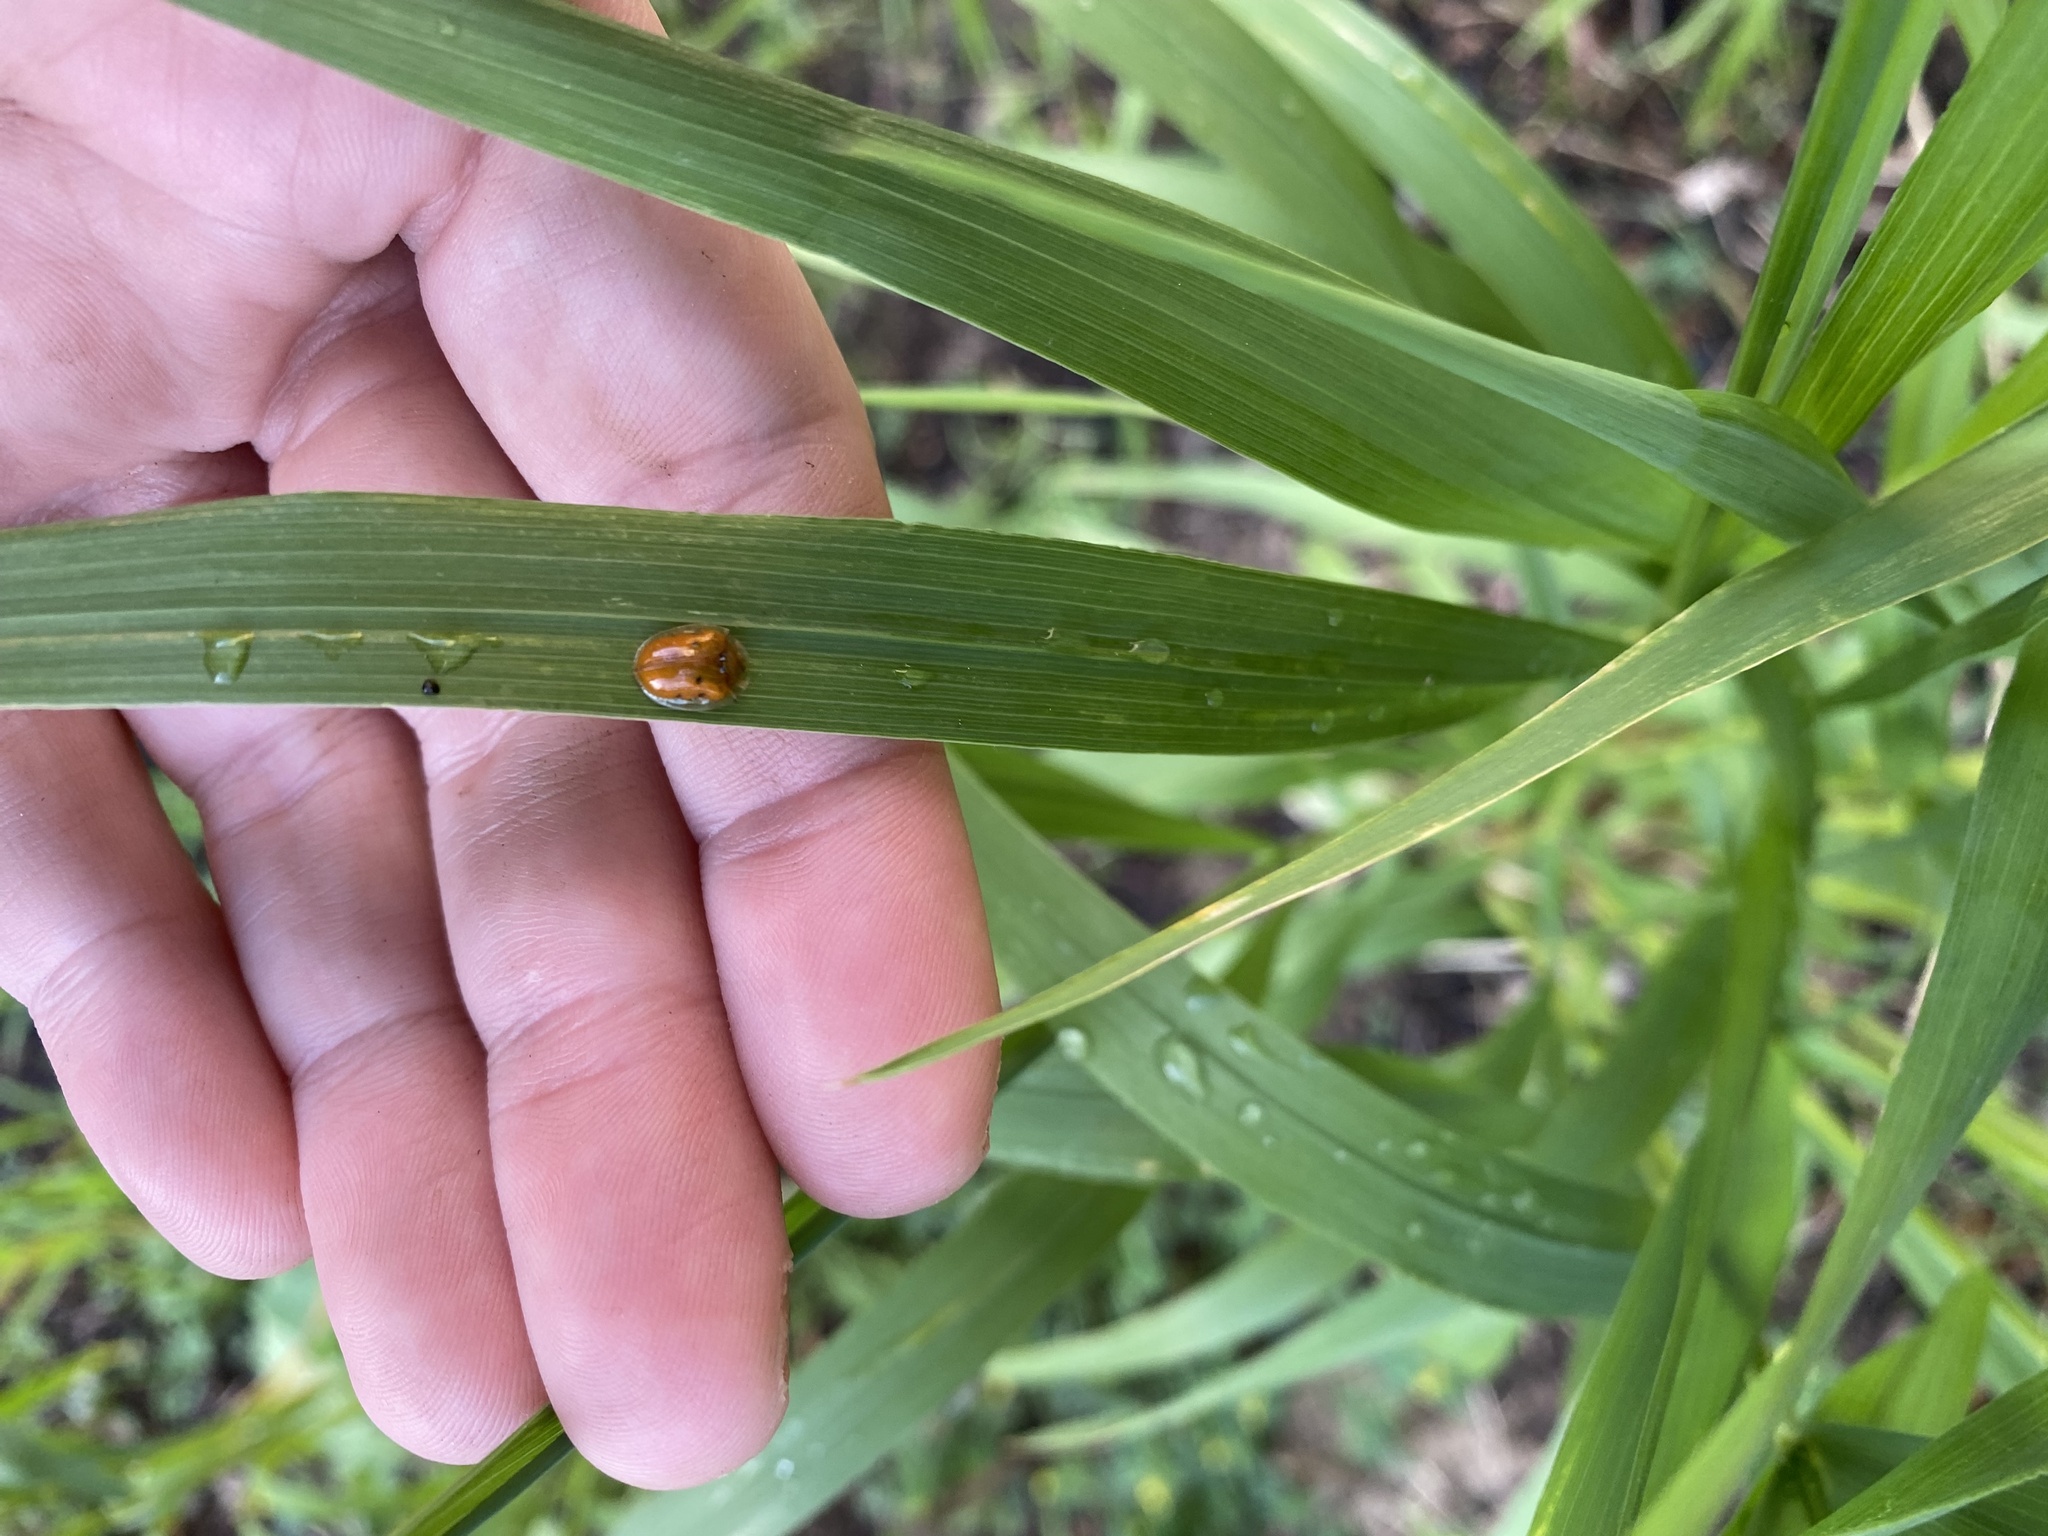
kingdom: Animalia
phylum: Arthropoda
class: Insecta
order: Coleoptera
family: Chrysomelidae
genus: Charidotella
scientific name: Charidotella sexpunctata
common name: Golden tortoise beetle
